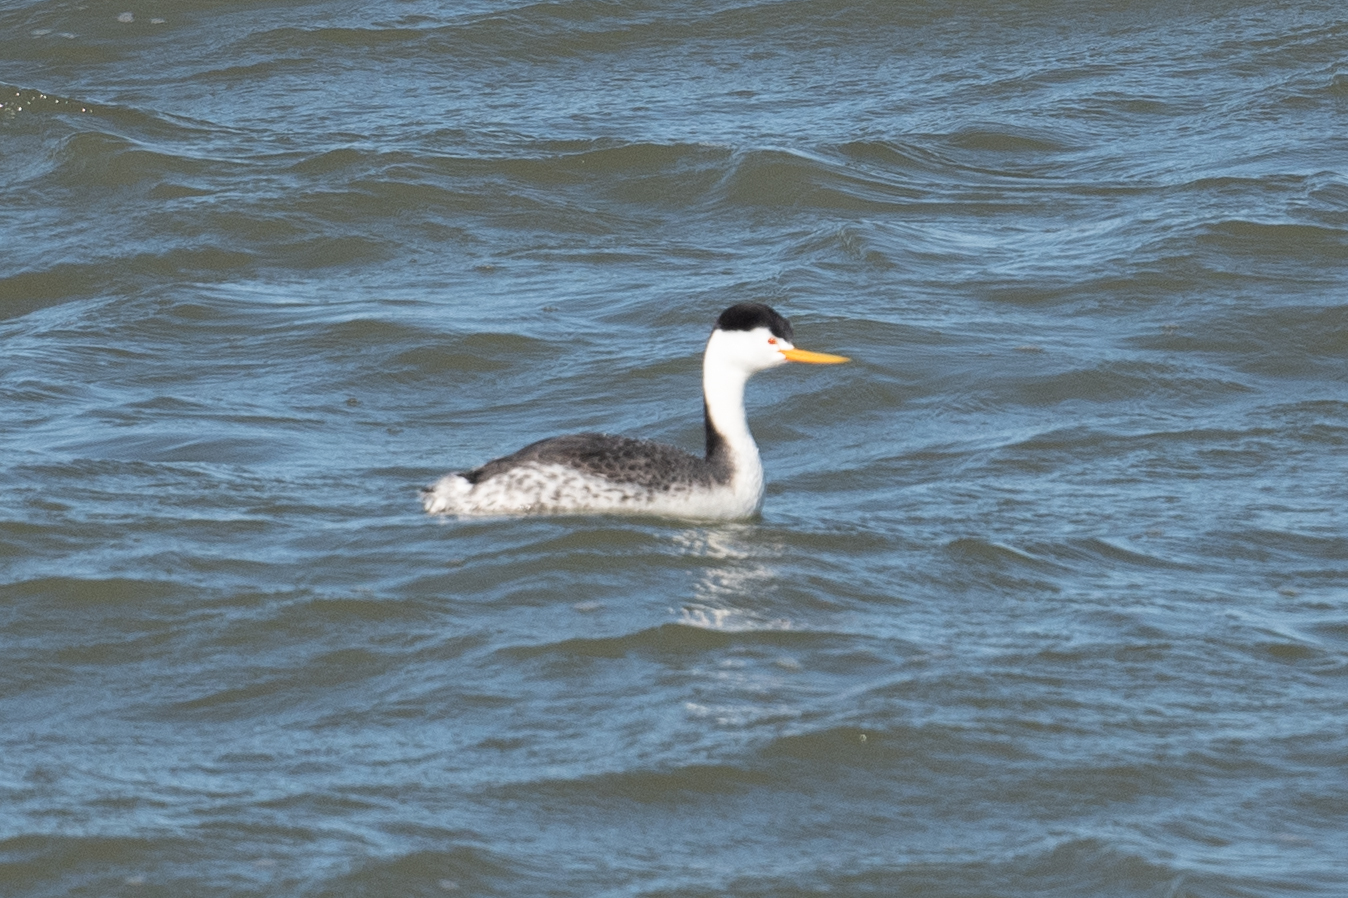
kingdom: Animalia
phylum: Chordata
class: Aves
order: Podicipediformes
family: Podicipedidae
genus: Aechmophorus
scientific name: Aechmophorus clarkii
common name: Clark's grebe
